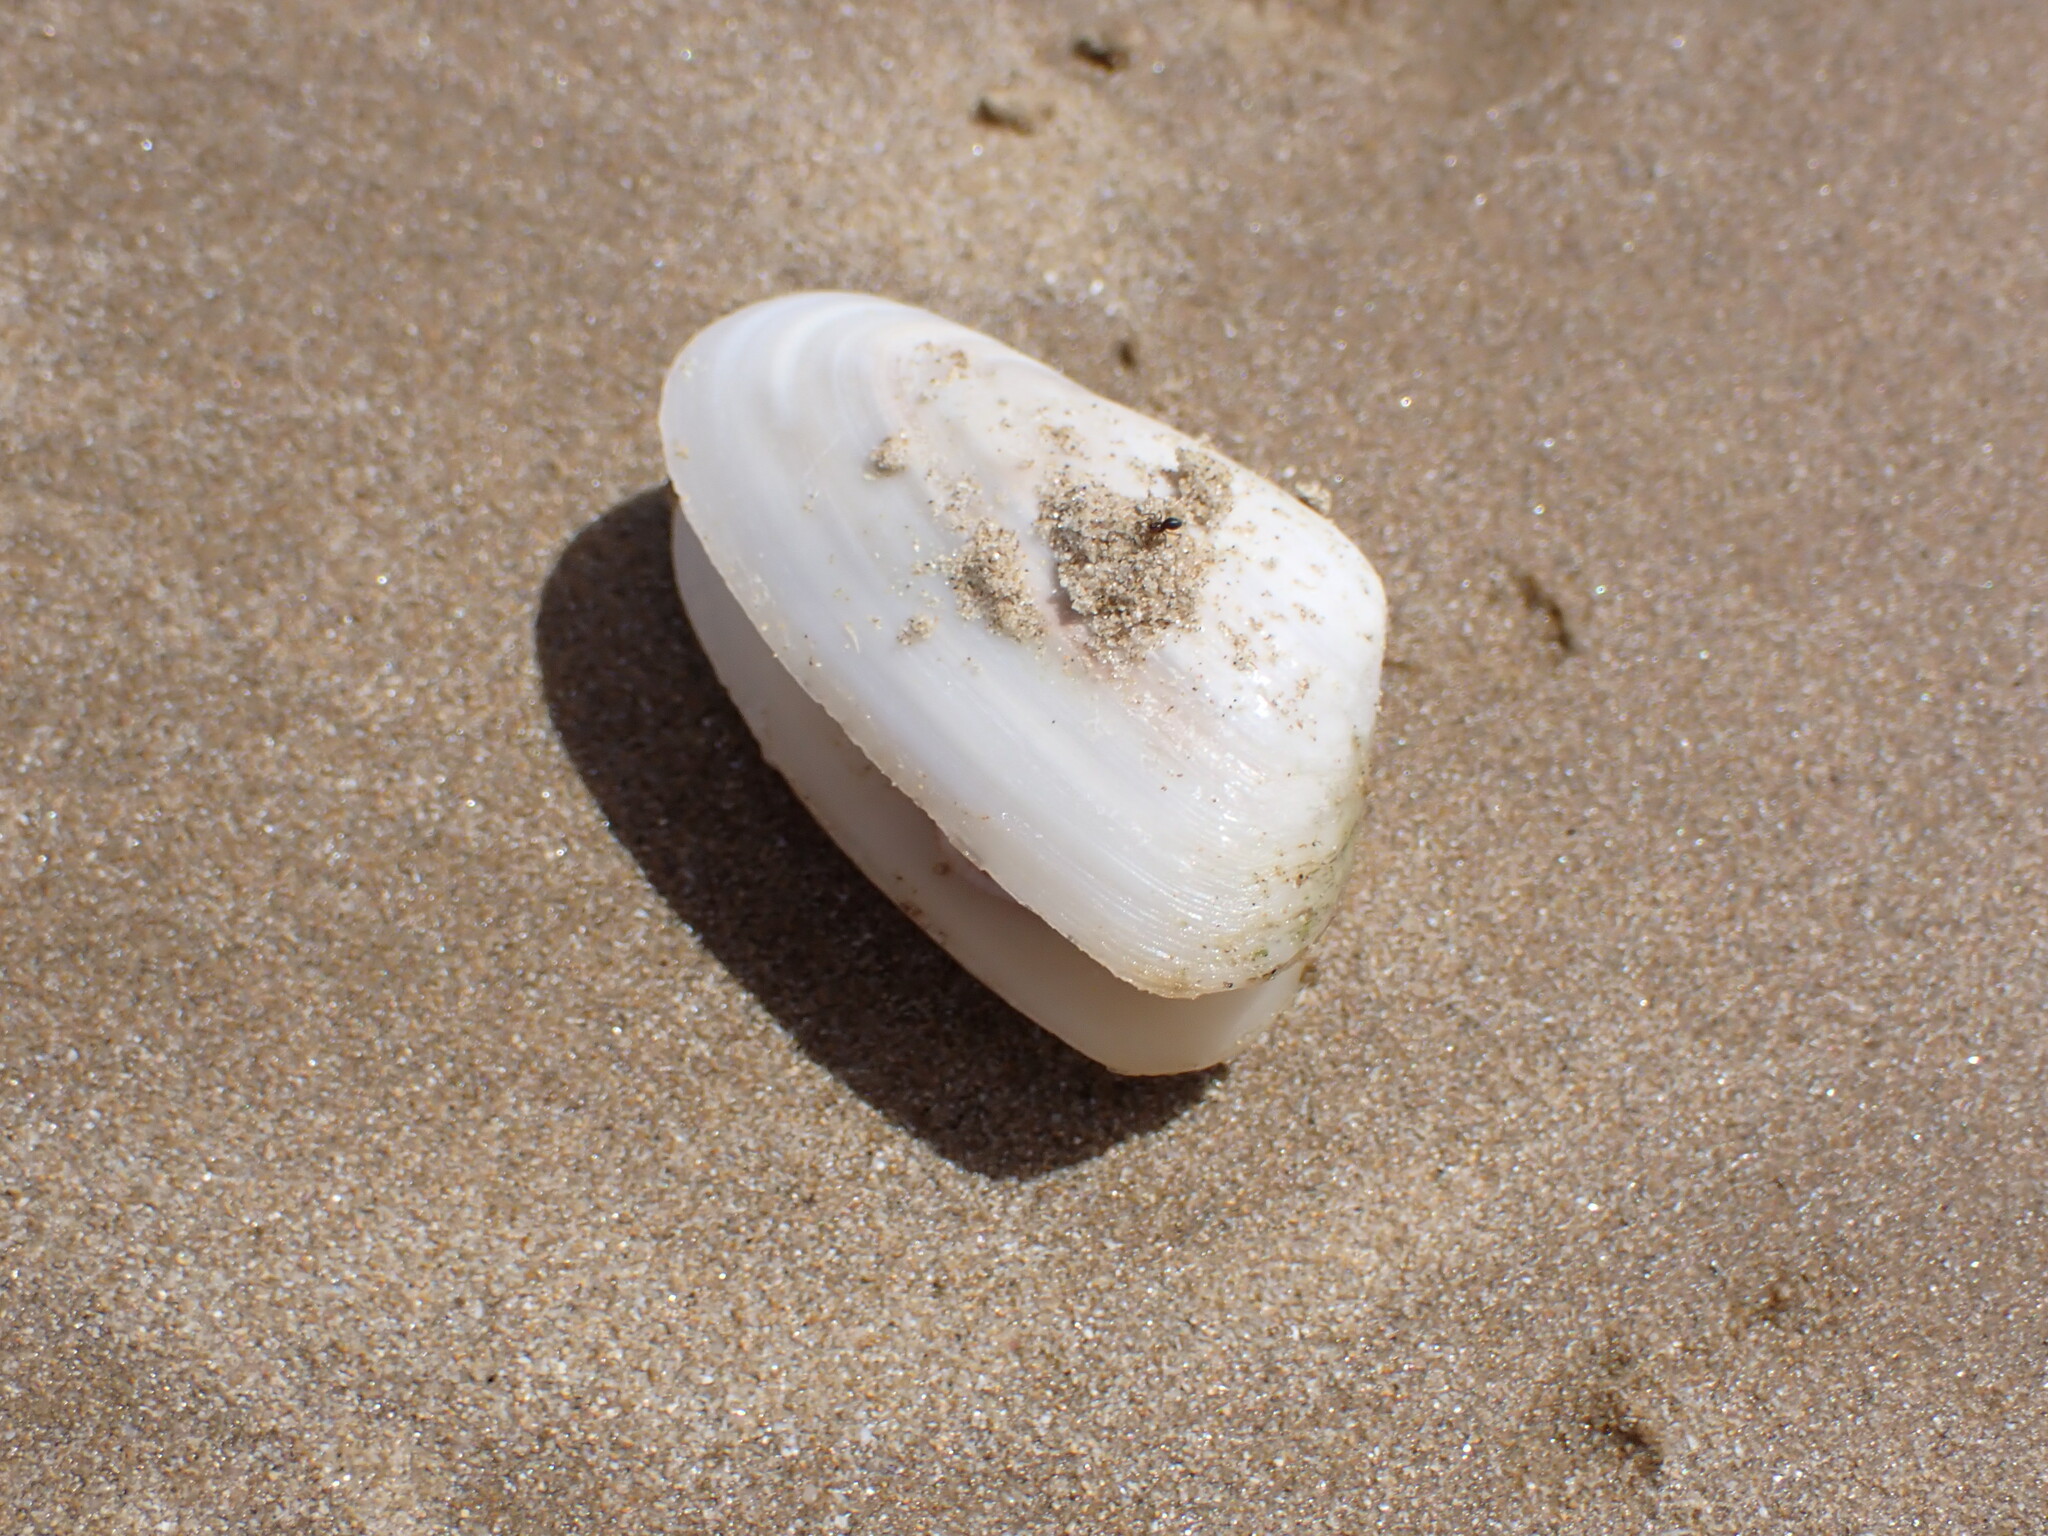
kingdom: Animalia
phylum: Mollusca
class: Bivalvia
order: Venerida
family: Mesodesmatidae
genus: Paphies
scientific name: Paphies subtriangulata
